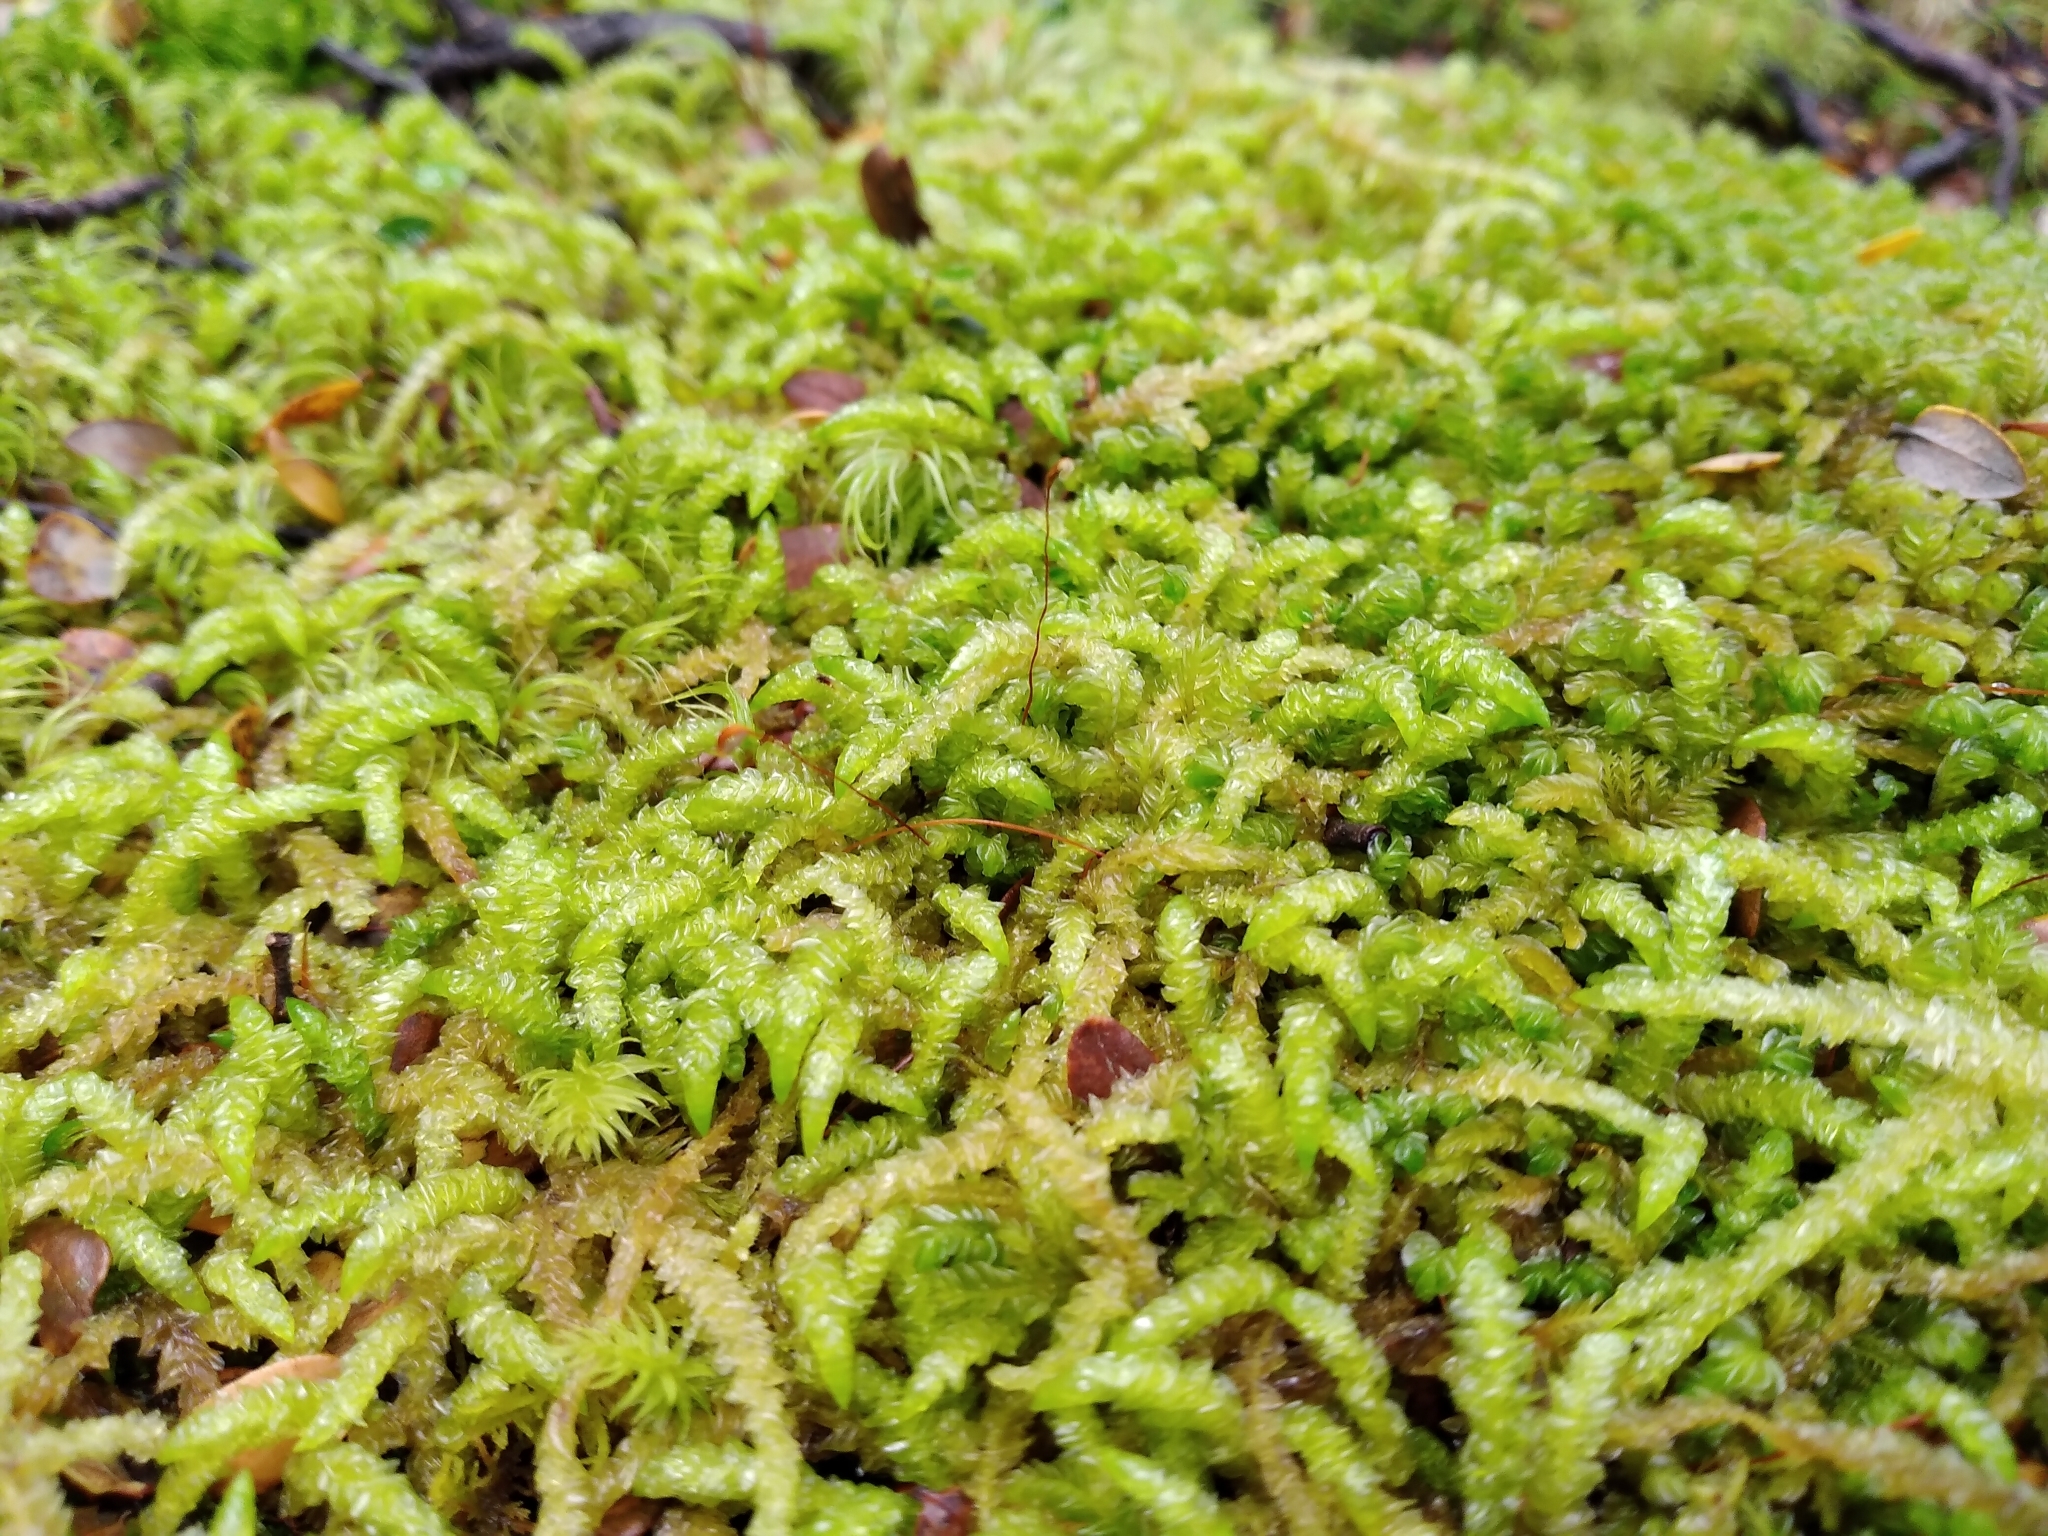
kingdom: Plantae
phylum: Bryophyta
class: Bryopsida
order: Hypnales
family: Acrocladiaceae
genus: Acrocladium
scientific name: Acrocladium chlamydophyllum
